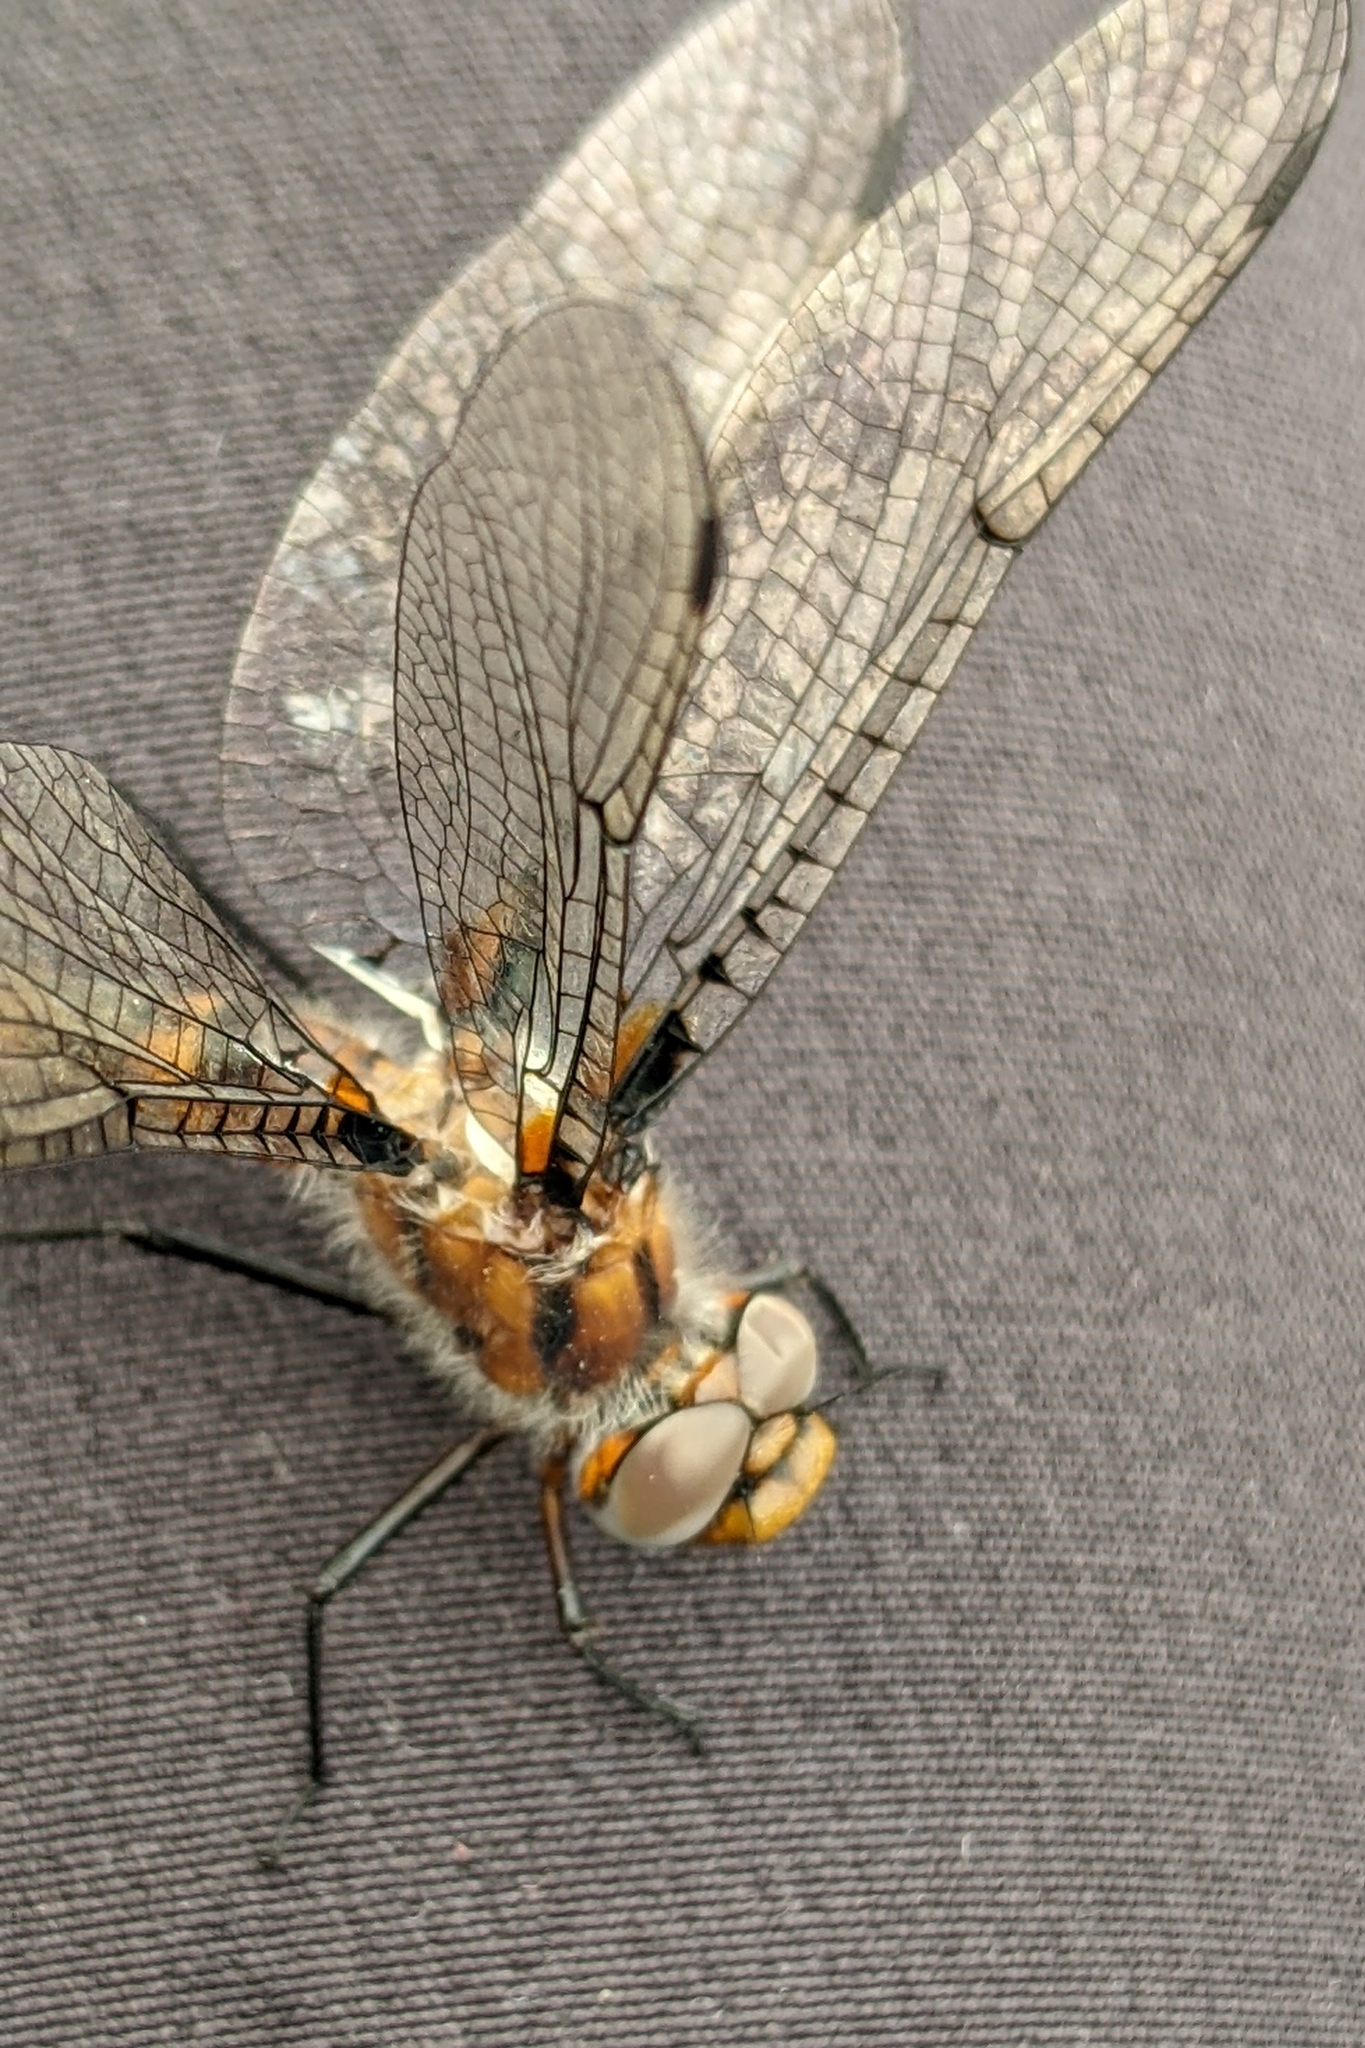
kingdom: Animalia
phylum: Arthropoda
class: Insecta
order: Odonata
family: Corduliidae
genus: Helocordulia
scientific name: Helocordulia uhleri
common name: Uhler's sundragon
